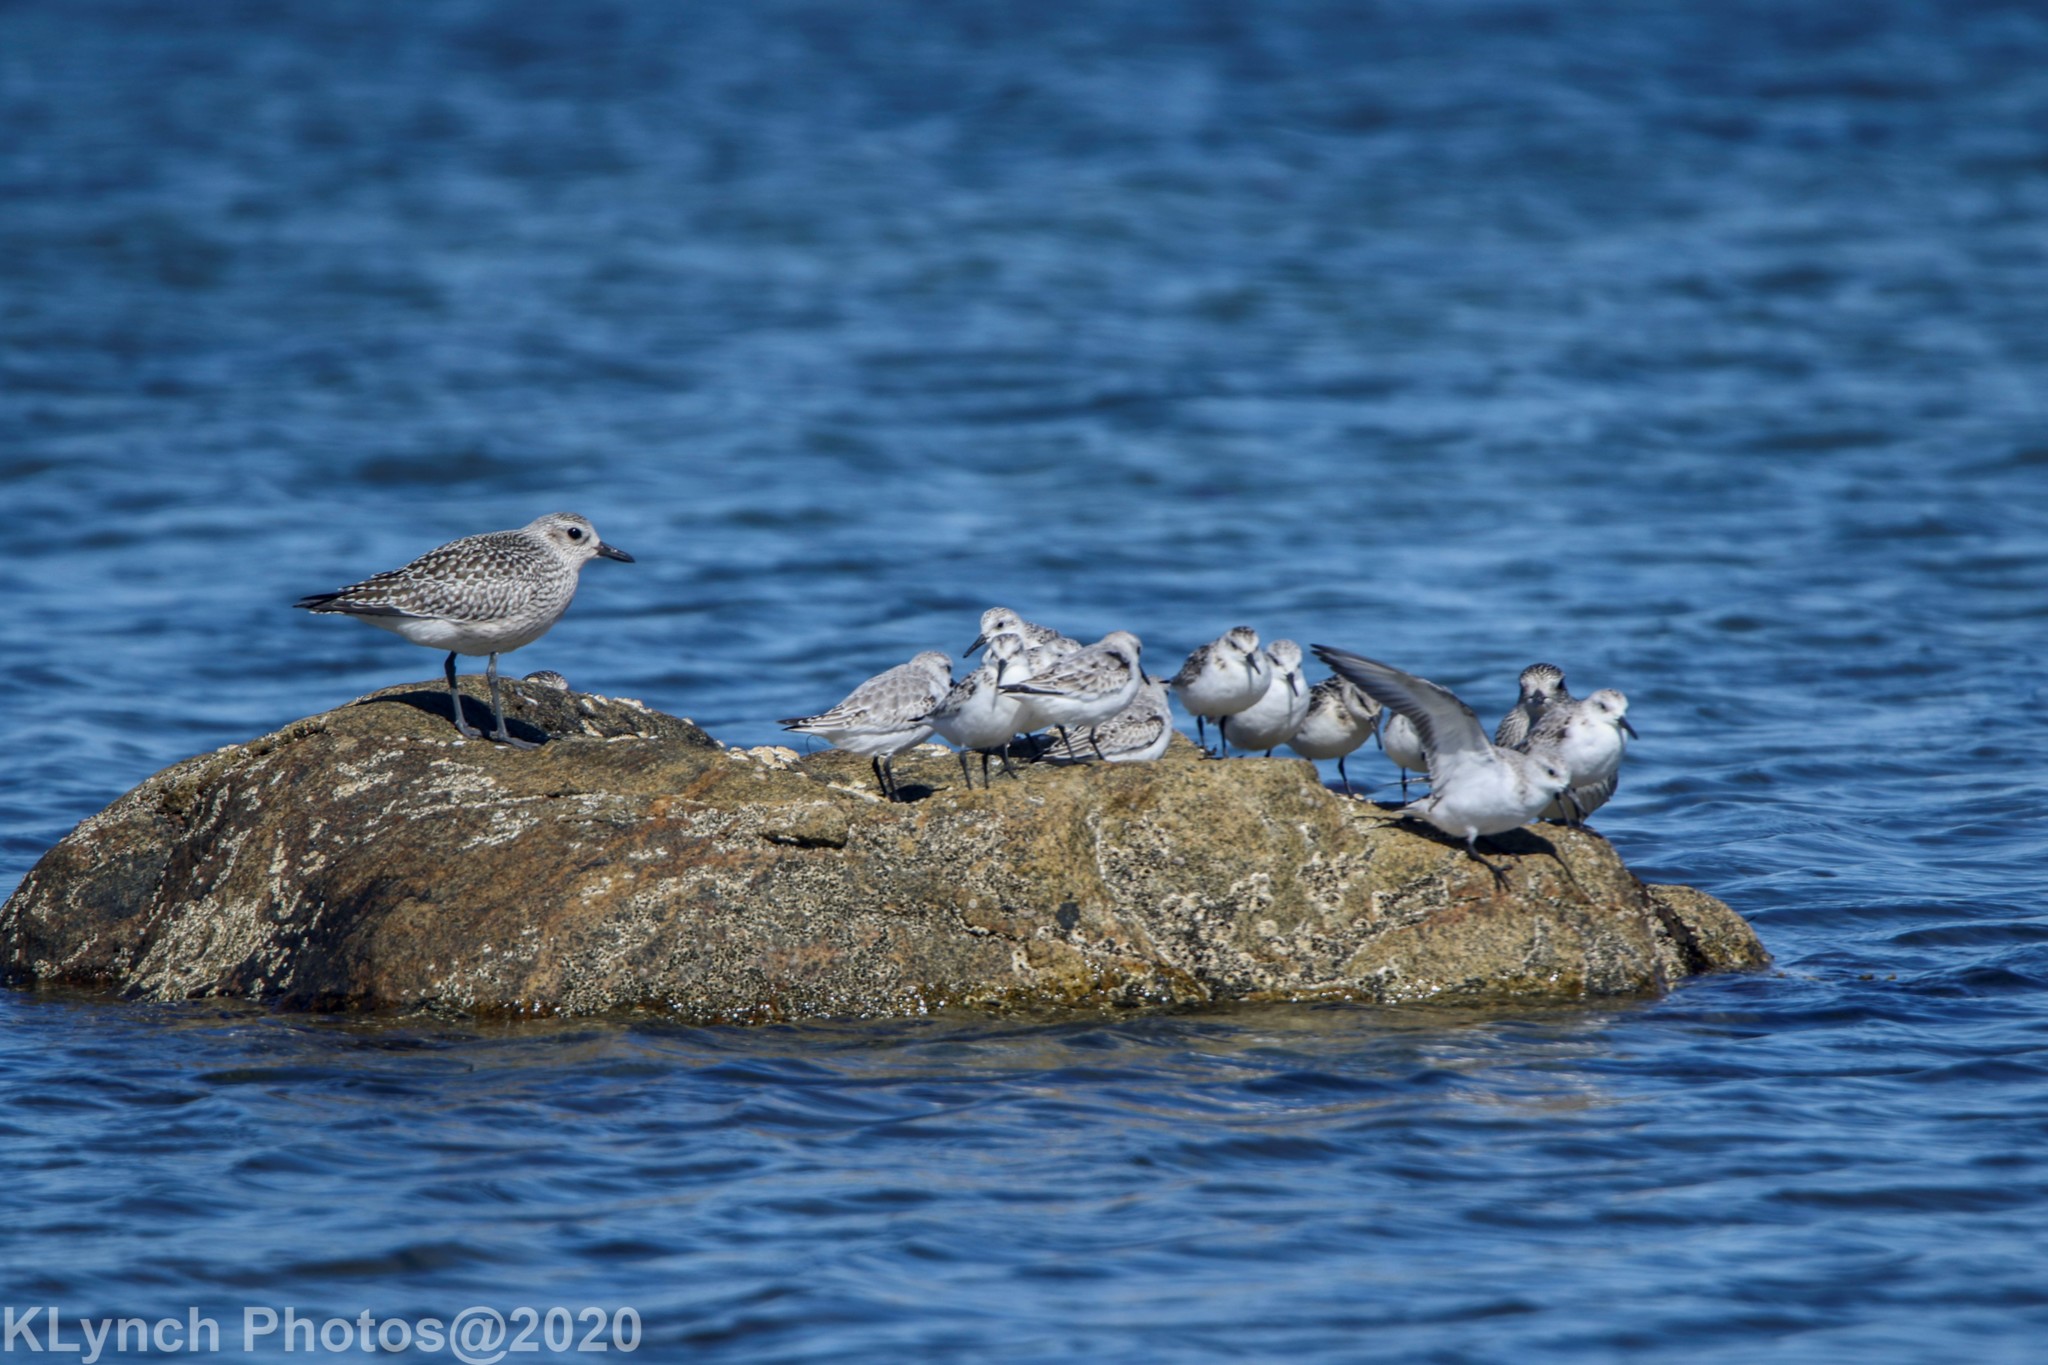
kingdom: Animalia
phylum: Chordata
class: Aves
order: Charadriiformes
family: Scolopacidae
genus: Calidris
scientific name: Calidris alba
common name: Sanderling
